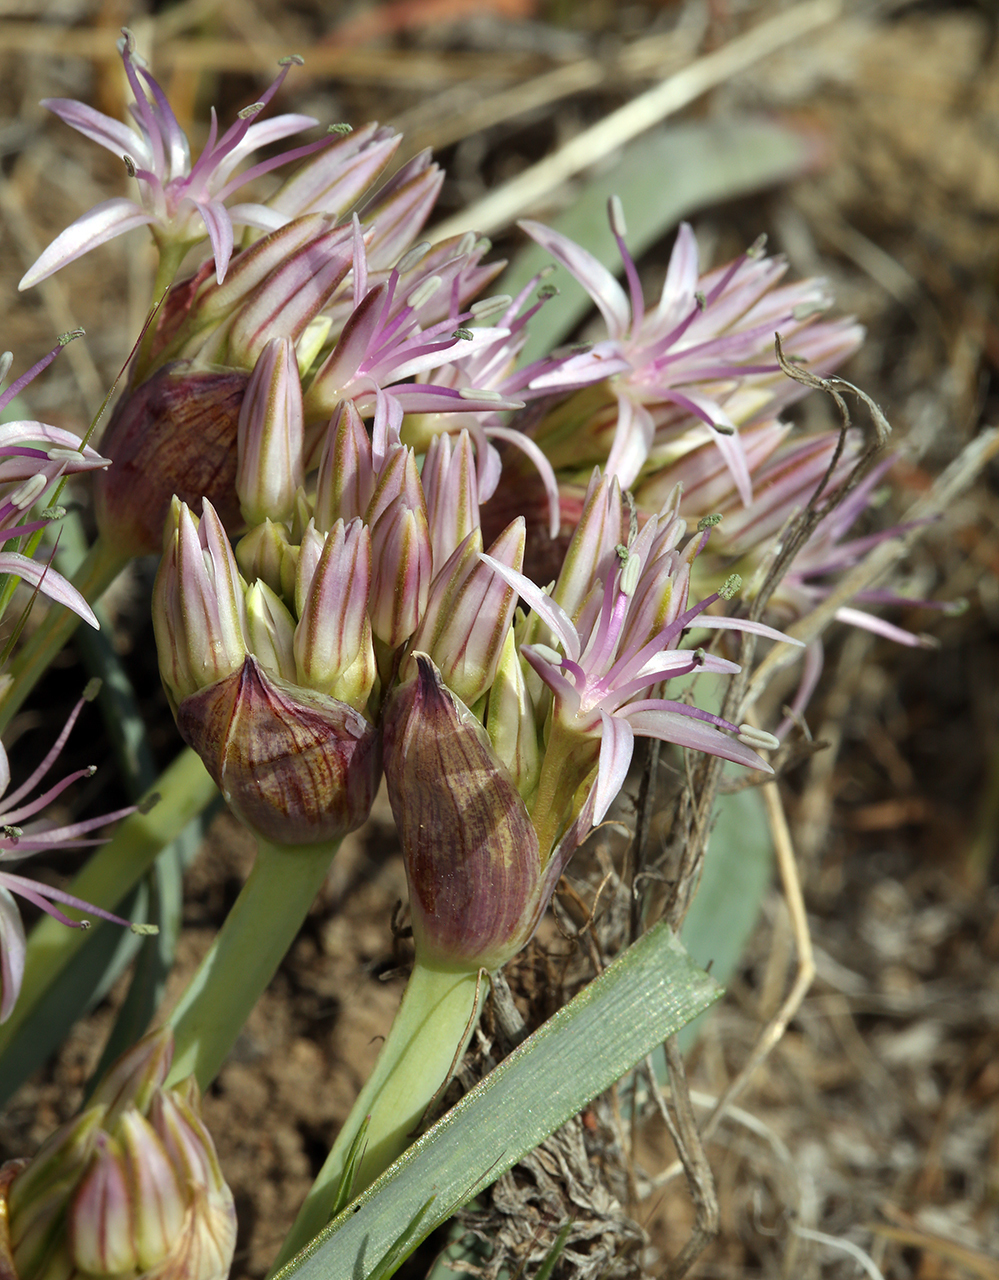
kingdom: Plantae
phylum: Tracheophyta
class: Liliopsida
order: Asparagales
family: Amaryllidaceae
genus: Allium
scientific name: Allium anceps
